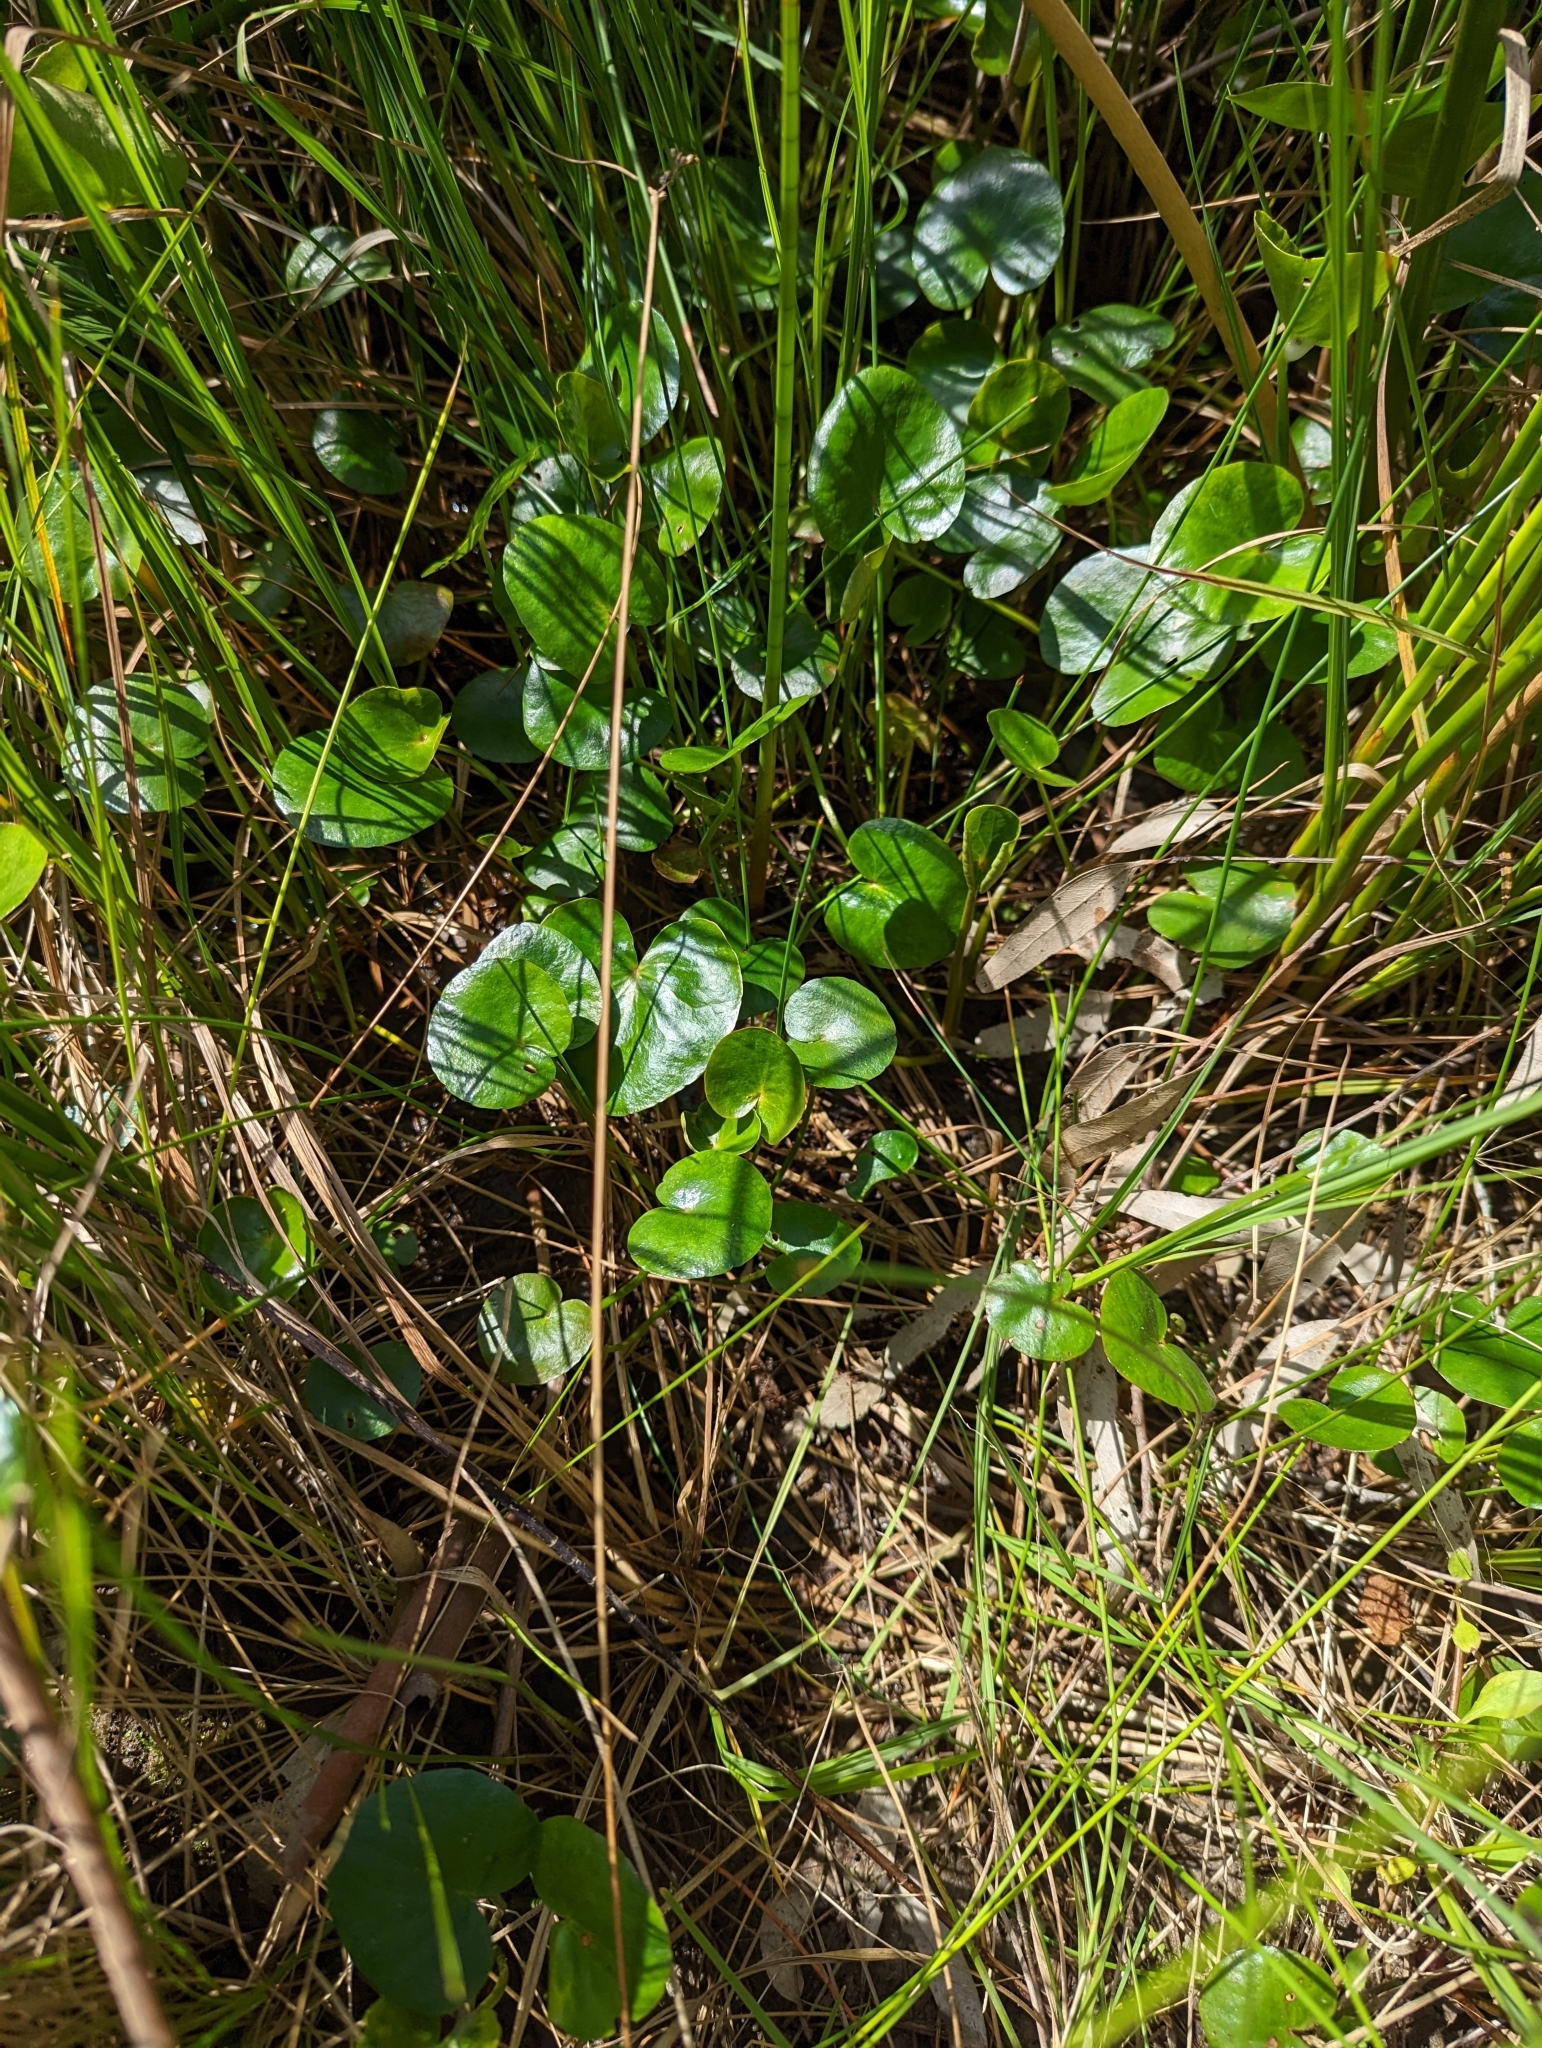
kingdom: Plantae
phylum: Tracheophyta
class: Magnoliopsida
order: Asterales
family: Menyanthaceae
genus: Ornduffia
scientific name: Ornduffia reniformis
